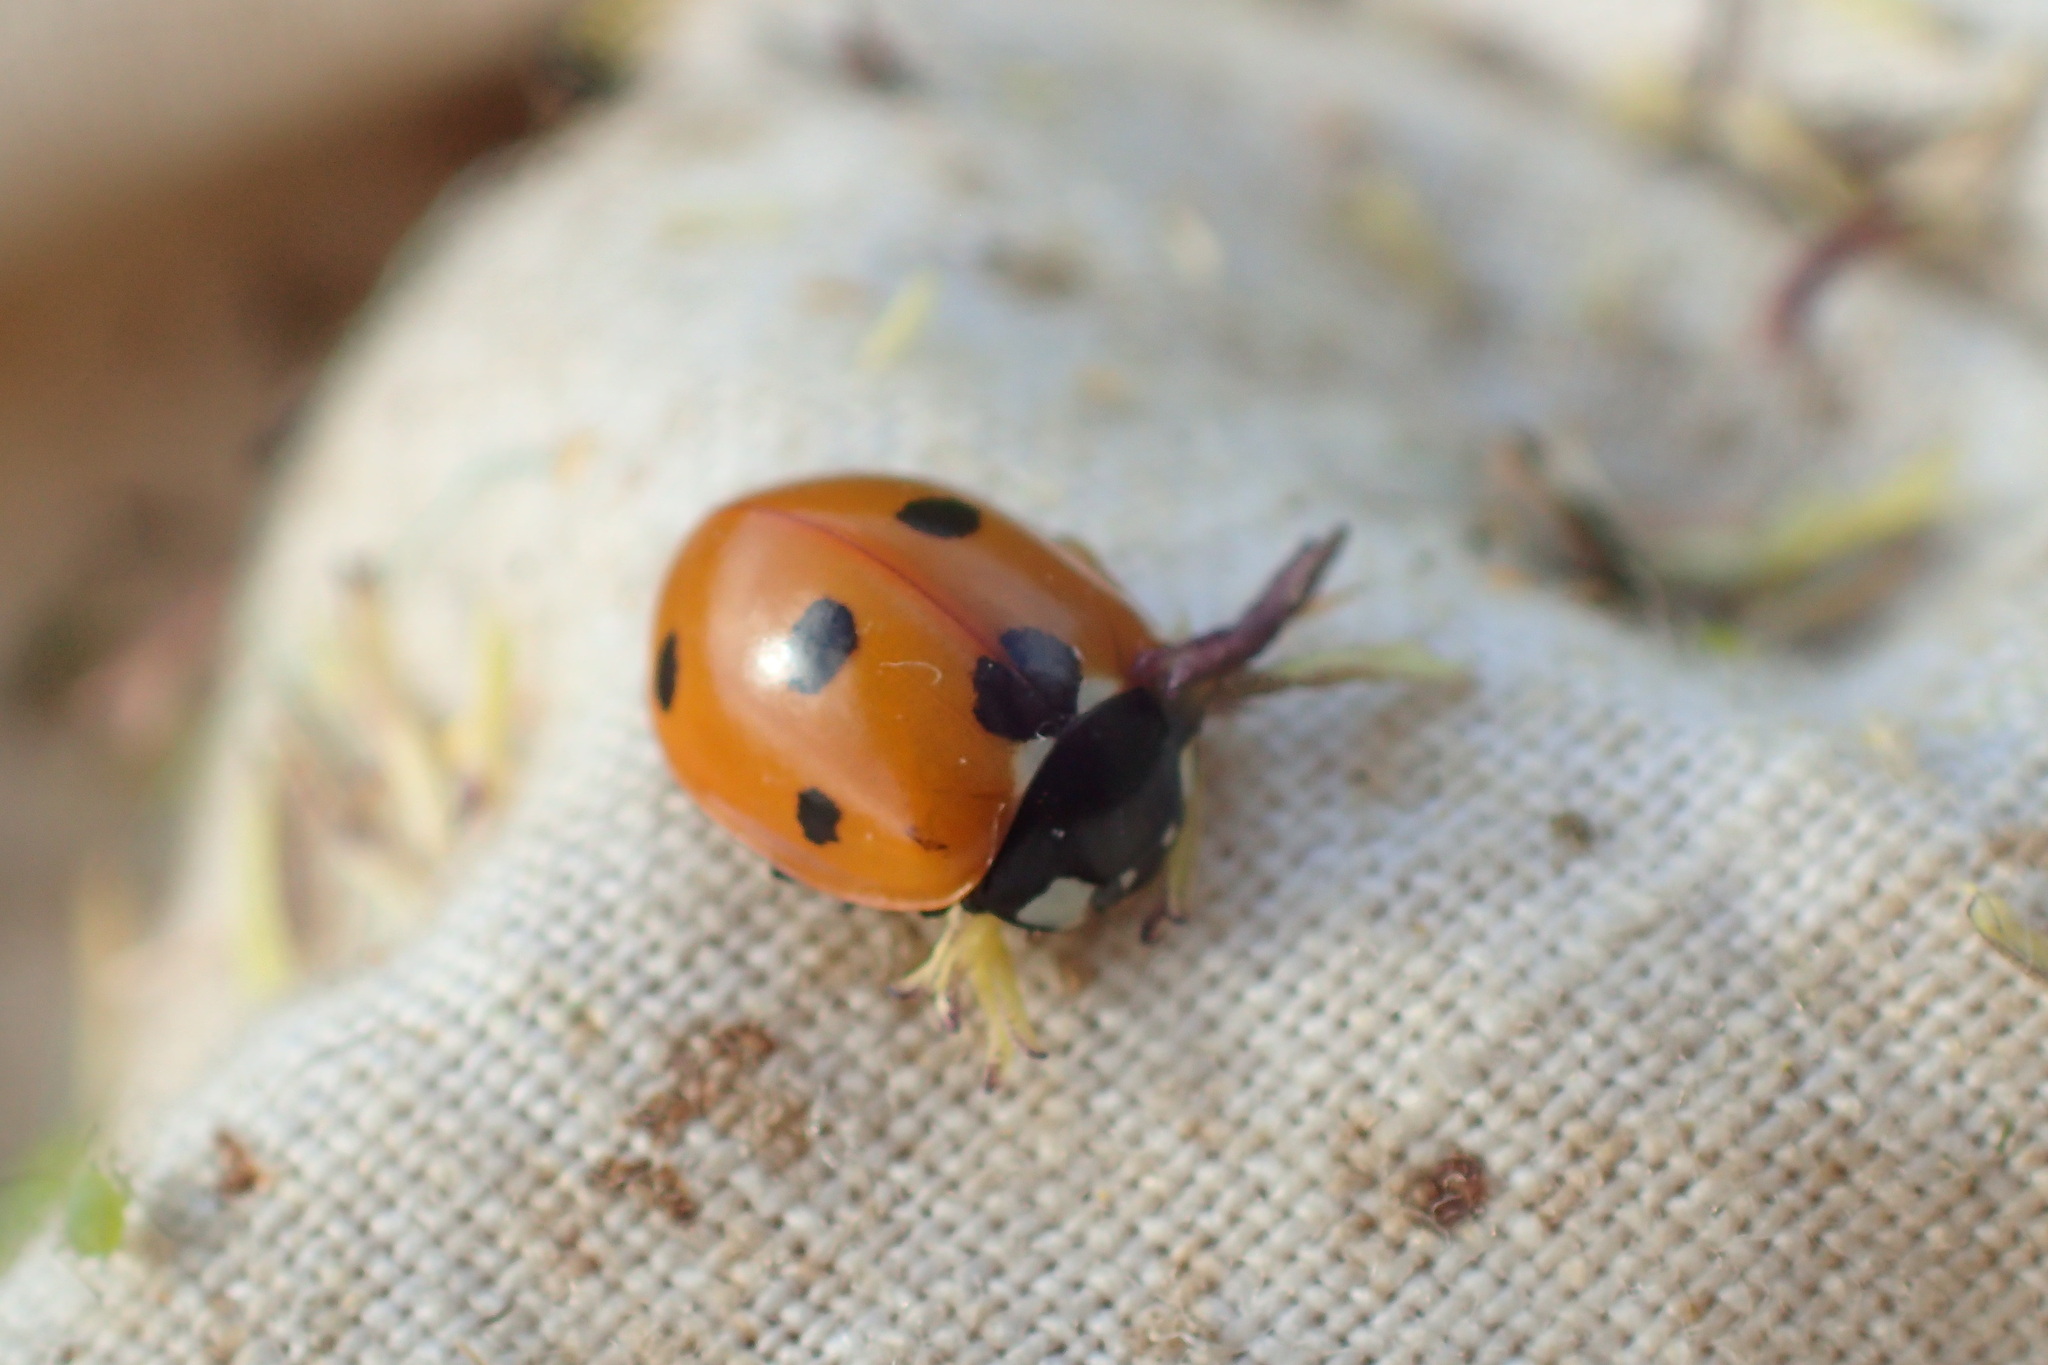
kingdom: Animalia
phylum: Arthropoda
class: Insecta
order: Coleoptera
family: Coccinellidae
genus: Coccinella
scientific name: Coccinella septempunctata
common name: Sevenspotted lady beetle
